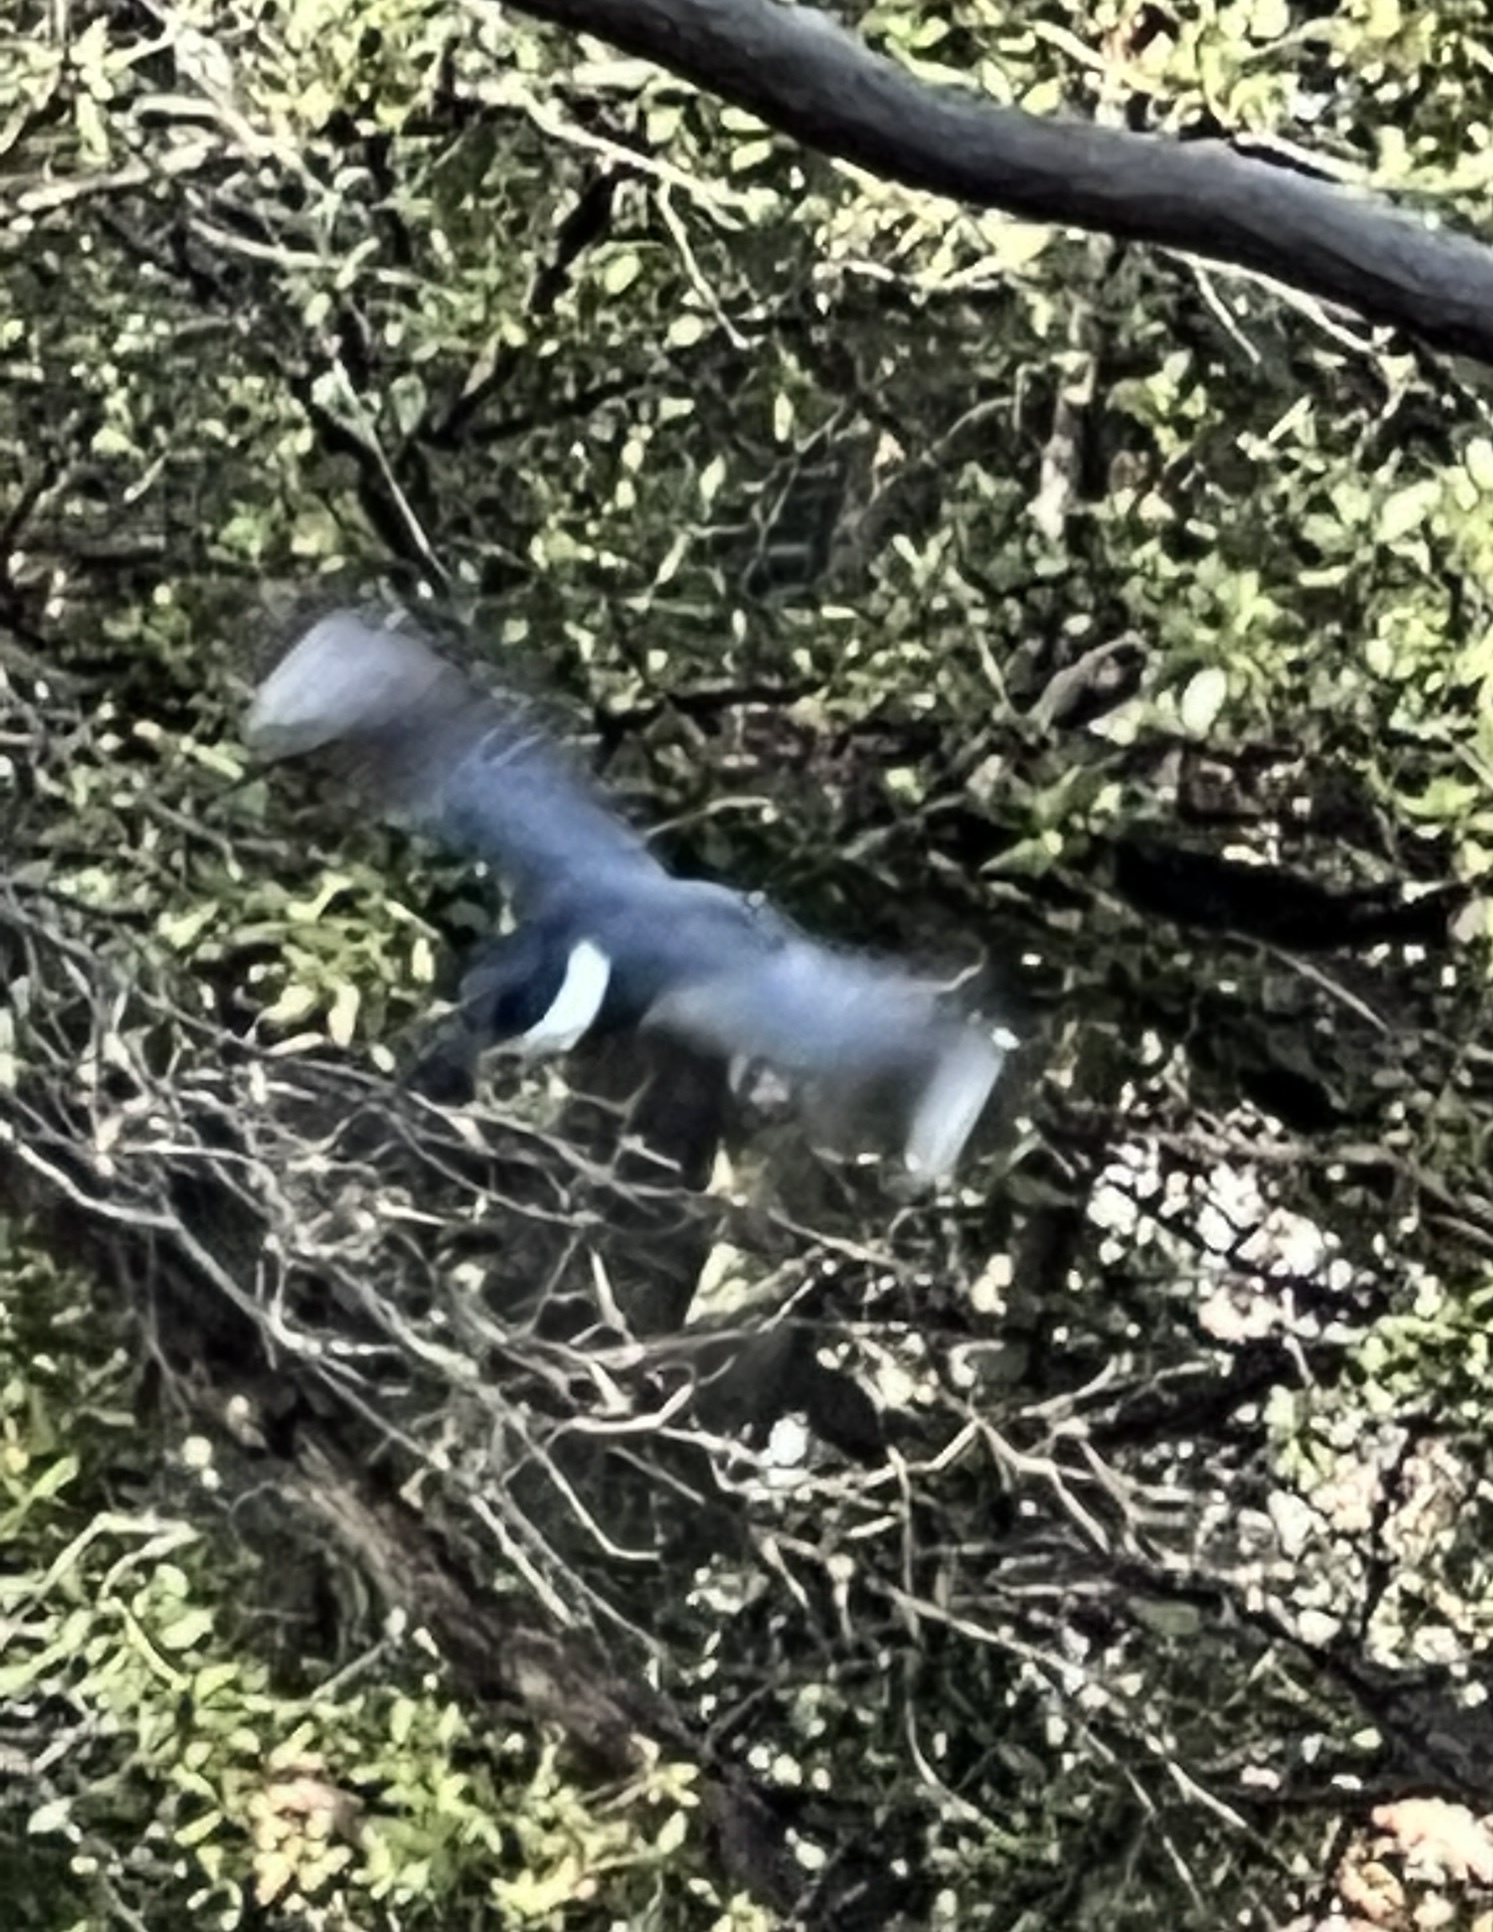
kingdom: Animalia
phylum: Chordata
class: Aves
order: Coraciiformes
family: Alcedinidae
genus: Megaceryle
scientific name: Megaceryle alcyon
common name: Belted kingfisher
